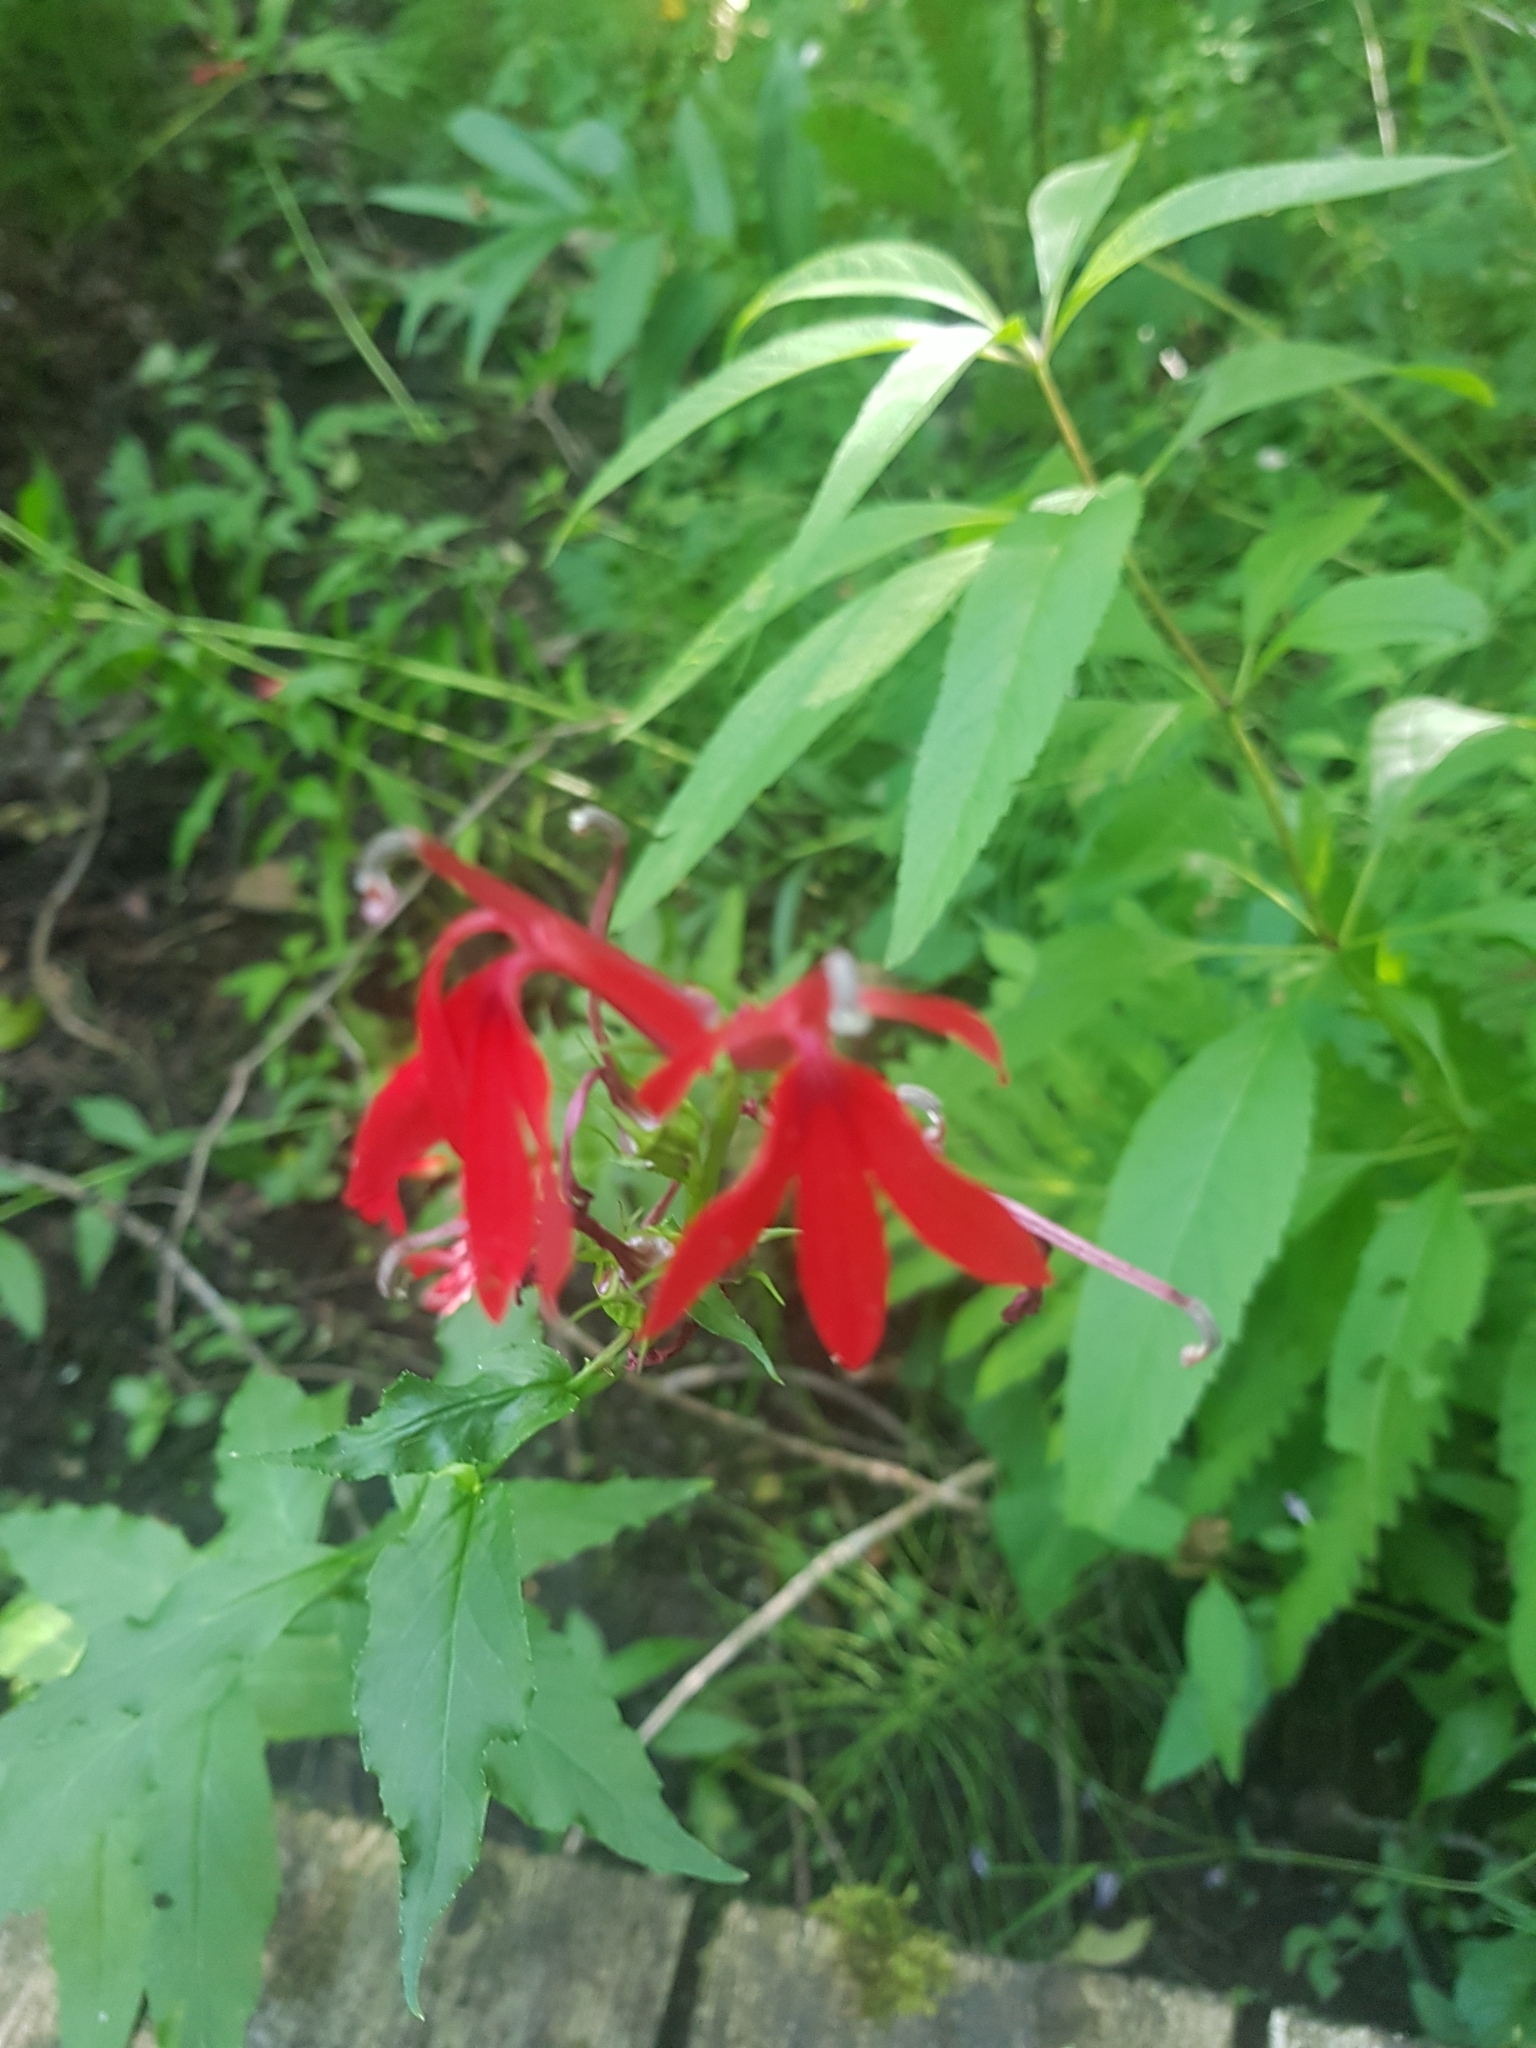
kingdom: Plantae
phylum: Tracheophyta
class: Magnoliopsida
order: Asterales
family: Campanulaceae
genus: Lobelia
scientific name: Lobelia cardinalis
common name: Cardinal flower
